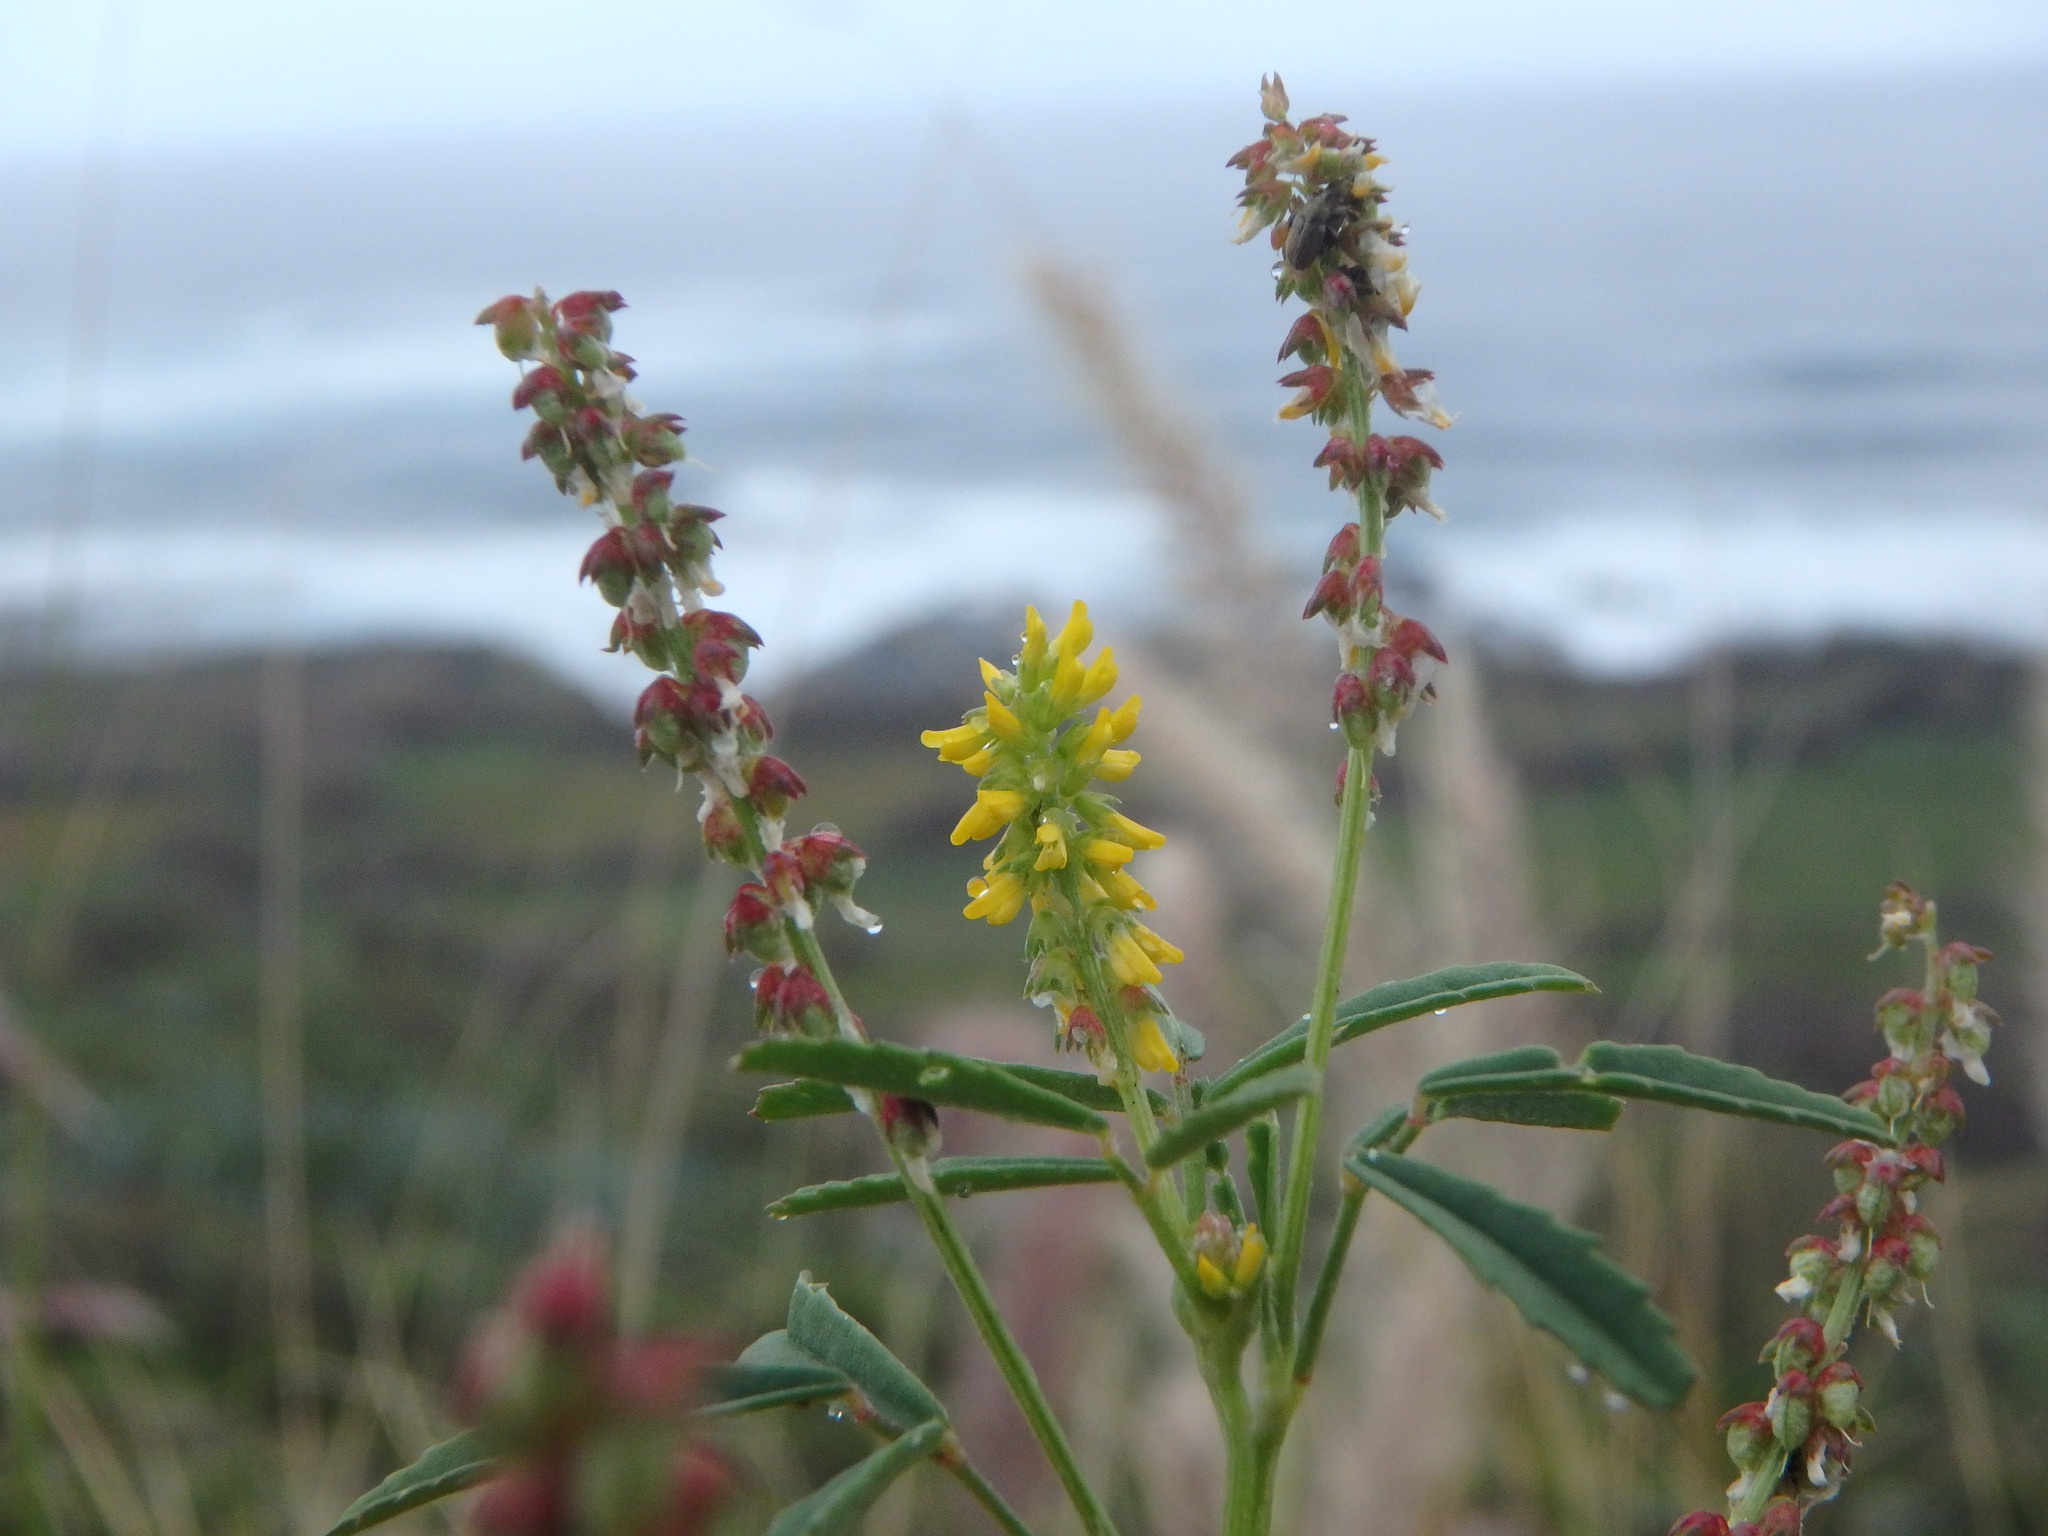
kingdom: Plantae
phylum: Tracheophyta
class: Magnoliopsida
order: Fabales
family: Fabaceae
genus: Melilotus
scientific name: Melilotus indicus
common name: Small melilot
